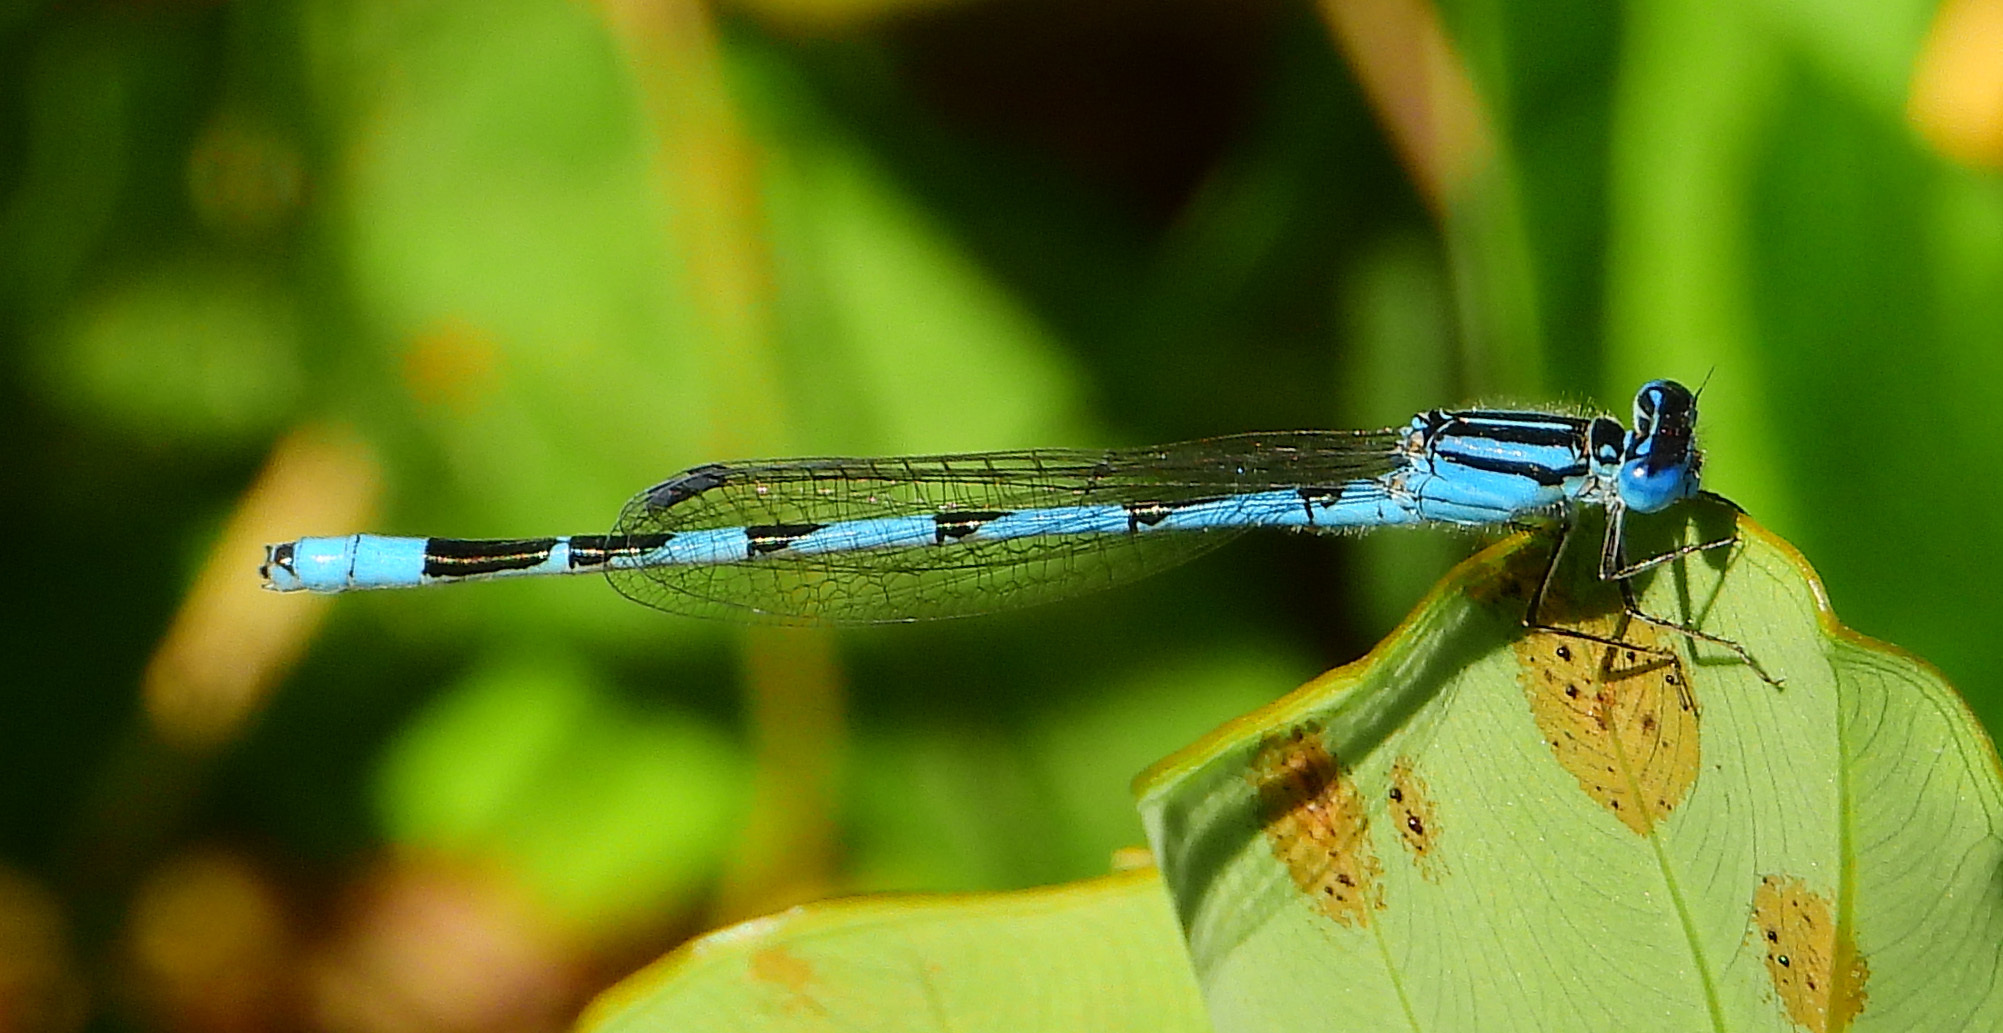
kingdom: Animalia
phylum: Arthropoda
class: Insecta
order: Odonata
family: Coenagrionidae
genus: Enallagma
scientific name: Enallagma durum
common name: Big bluet
